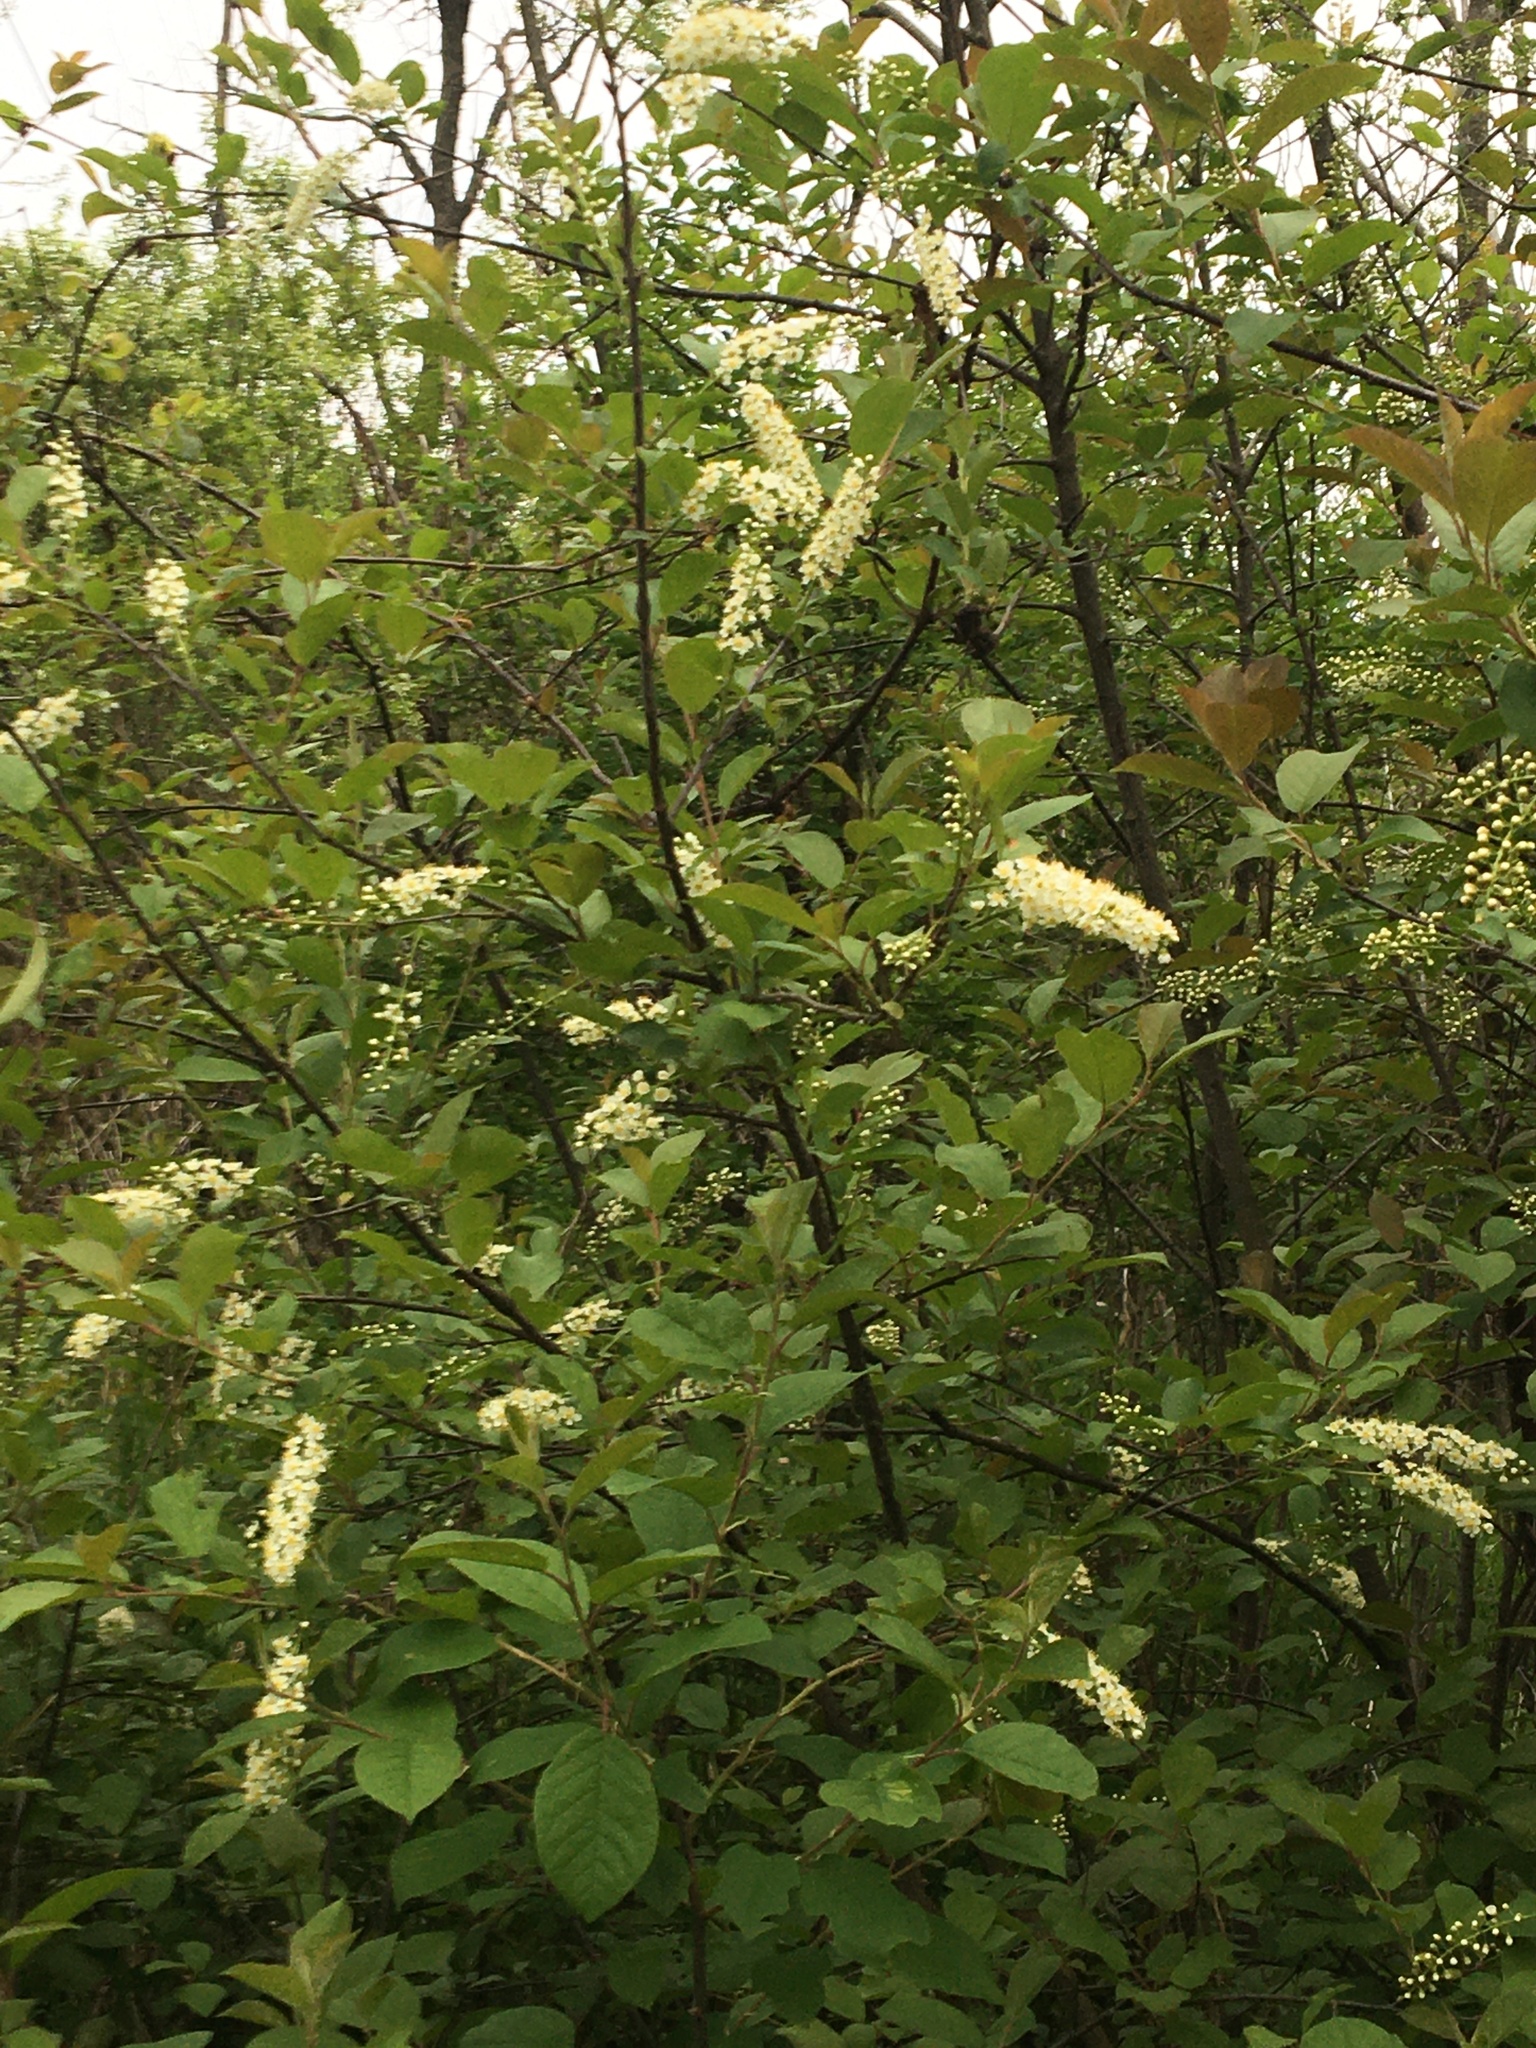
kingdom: Plantae
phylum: Tracheophyta
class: Magnoliopsida
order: Rosales
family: Rosaceae
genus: Prunus
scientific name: Prunus padus
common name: Bird cherry
